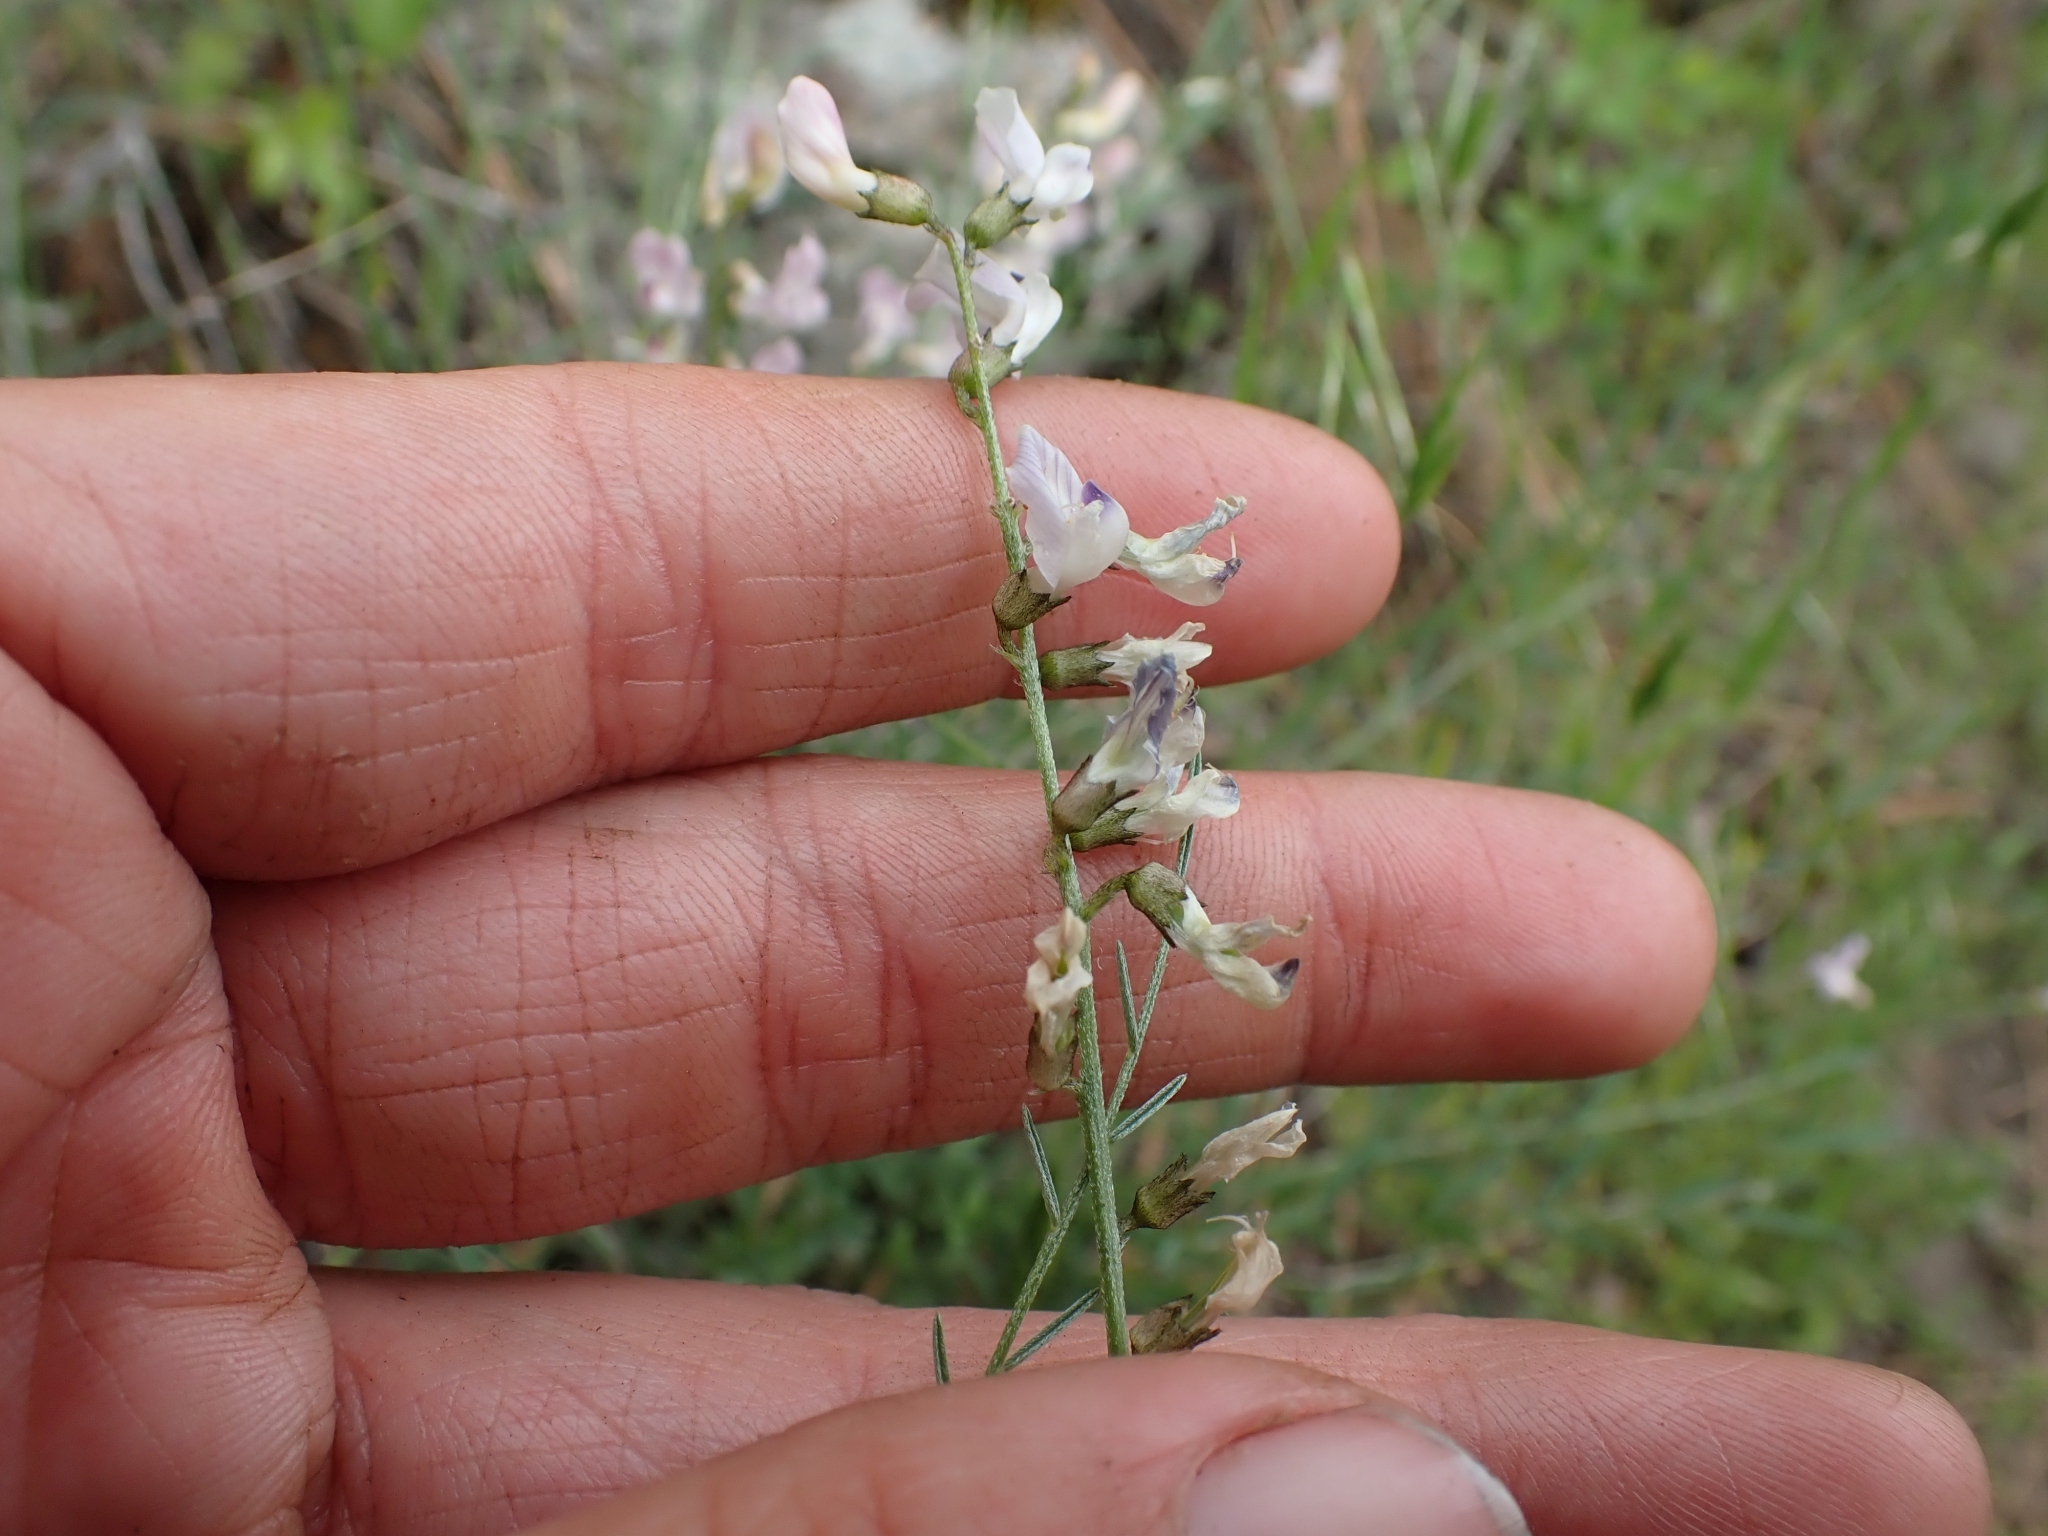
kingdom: Plantae
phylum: Tracheophyta
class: Magnoliopsida
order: Fabales
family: Fabaceae
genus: Astragalus
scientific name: Astragalus miser
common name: Timber milkvetch
